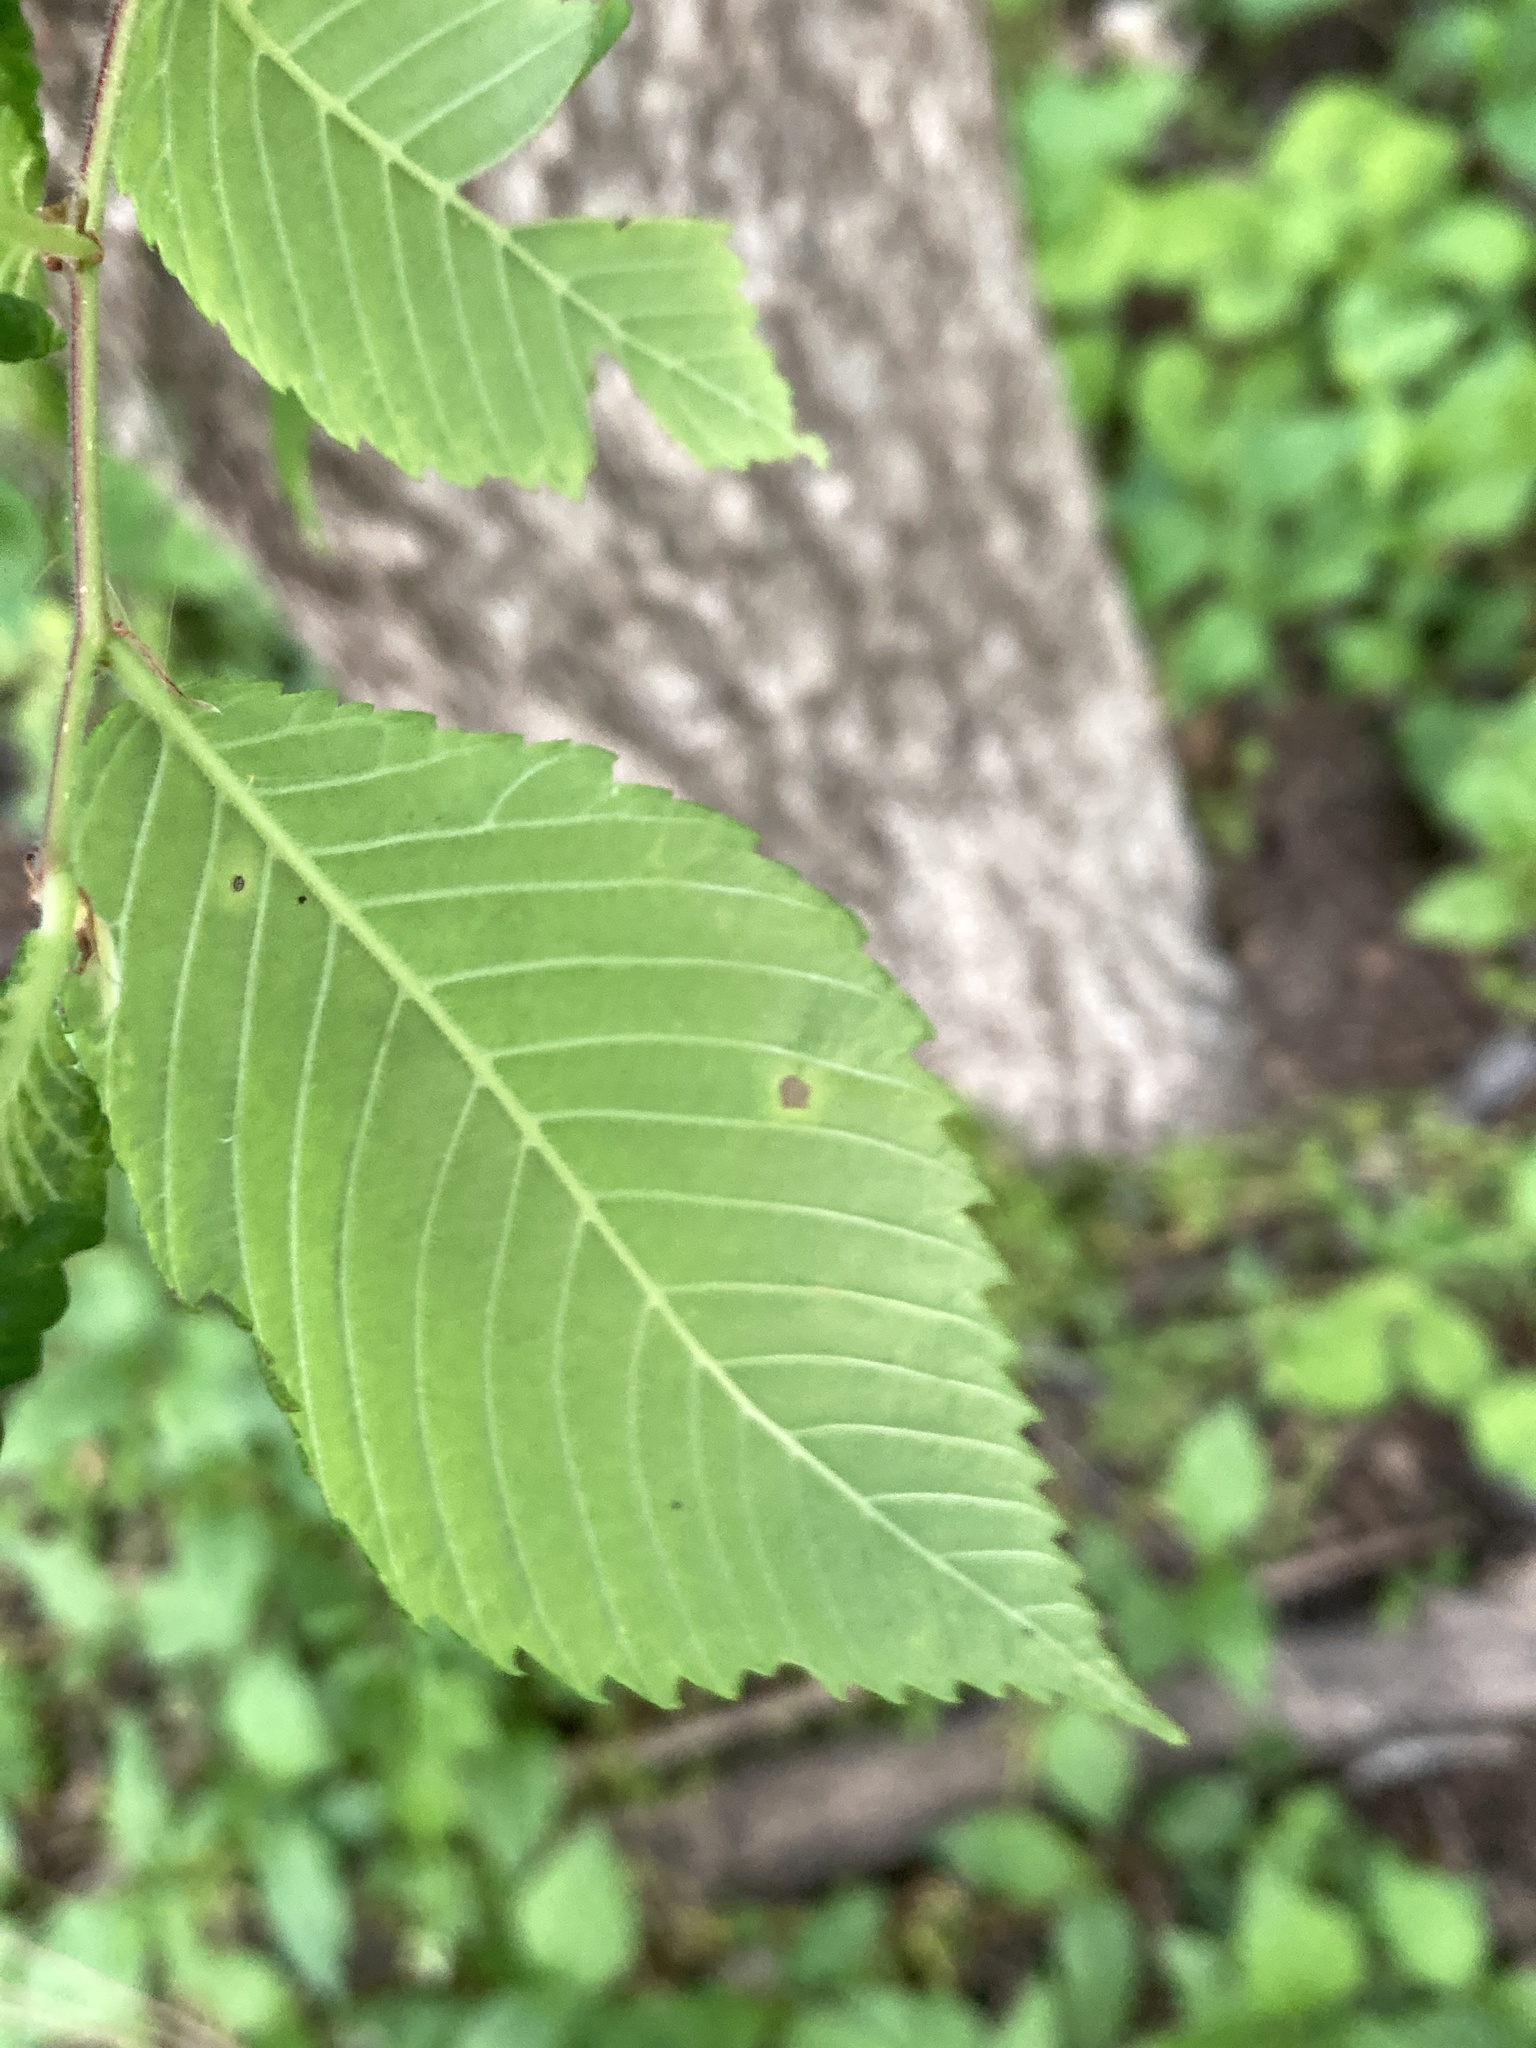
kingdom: Plantae
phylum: Tracheophyta
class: Magnoliopsida
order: Rosales
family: Ulmaceae
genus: Ulmus
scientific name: Ulmus americana
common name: American elm
